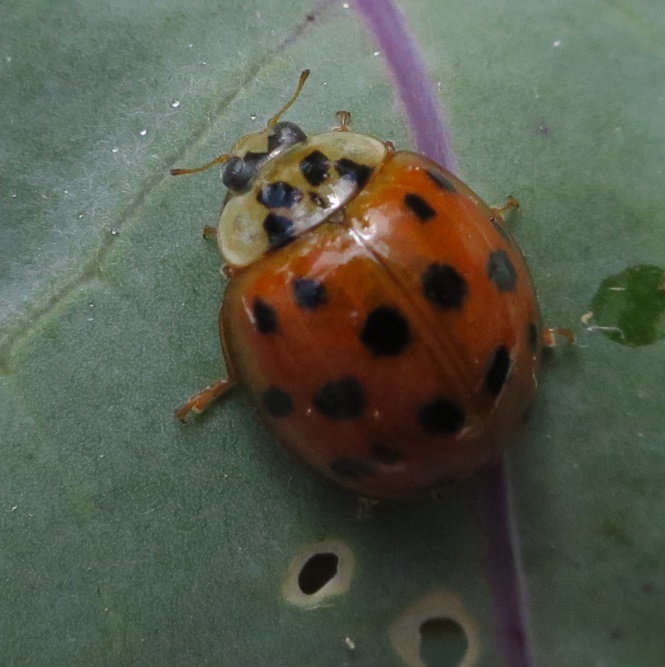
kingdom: Animalia
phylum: Arthropoda
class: Insecta
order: Coleoptera
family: Coccinellidae
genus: Harmonia
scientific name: Harmonia axyridis
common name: Harlequin ladybird
